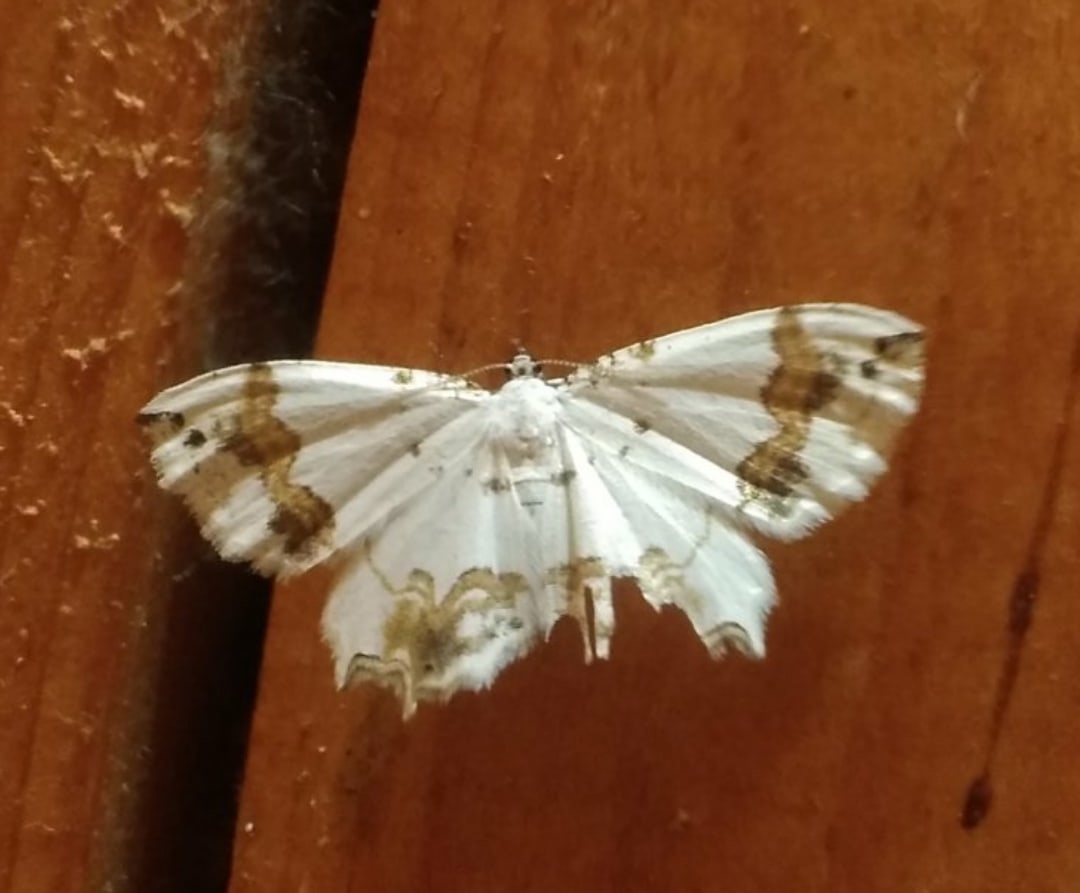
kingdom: Animalia
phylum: Arthropoda
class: Insecta
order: Lepidoptera
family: Uraniidae
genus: Epiplema
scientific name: Epiplema Eversmannia exornata
